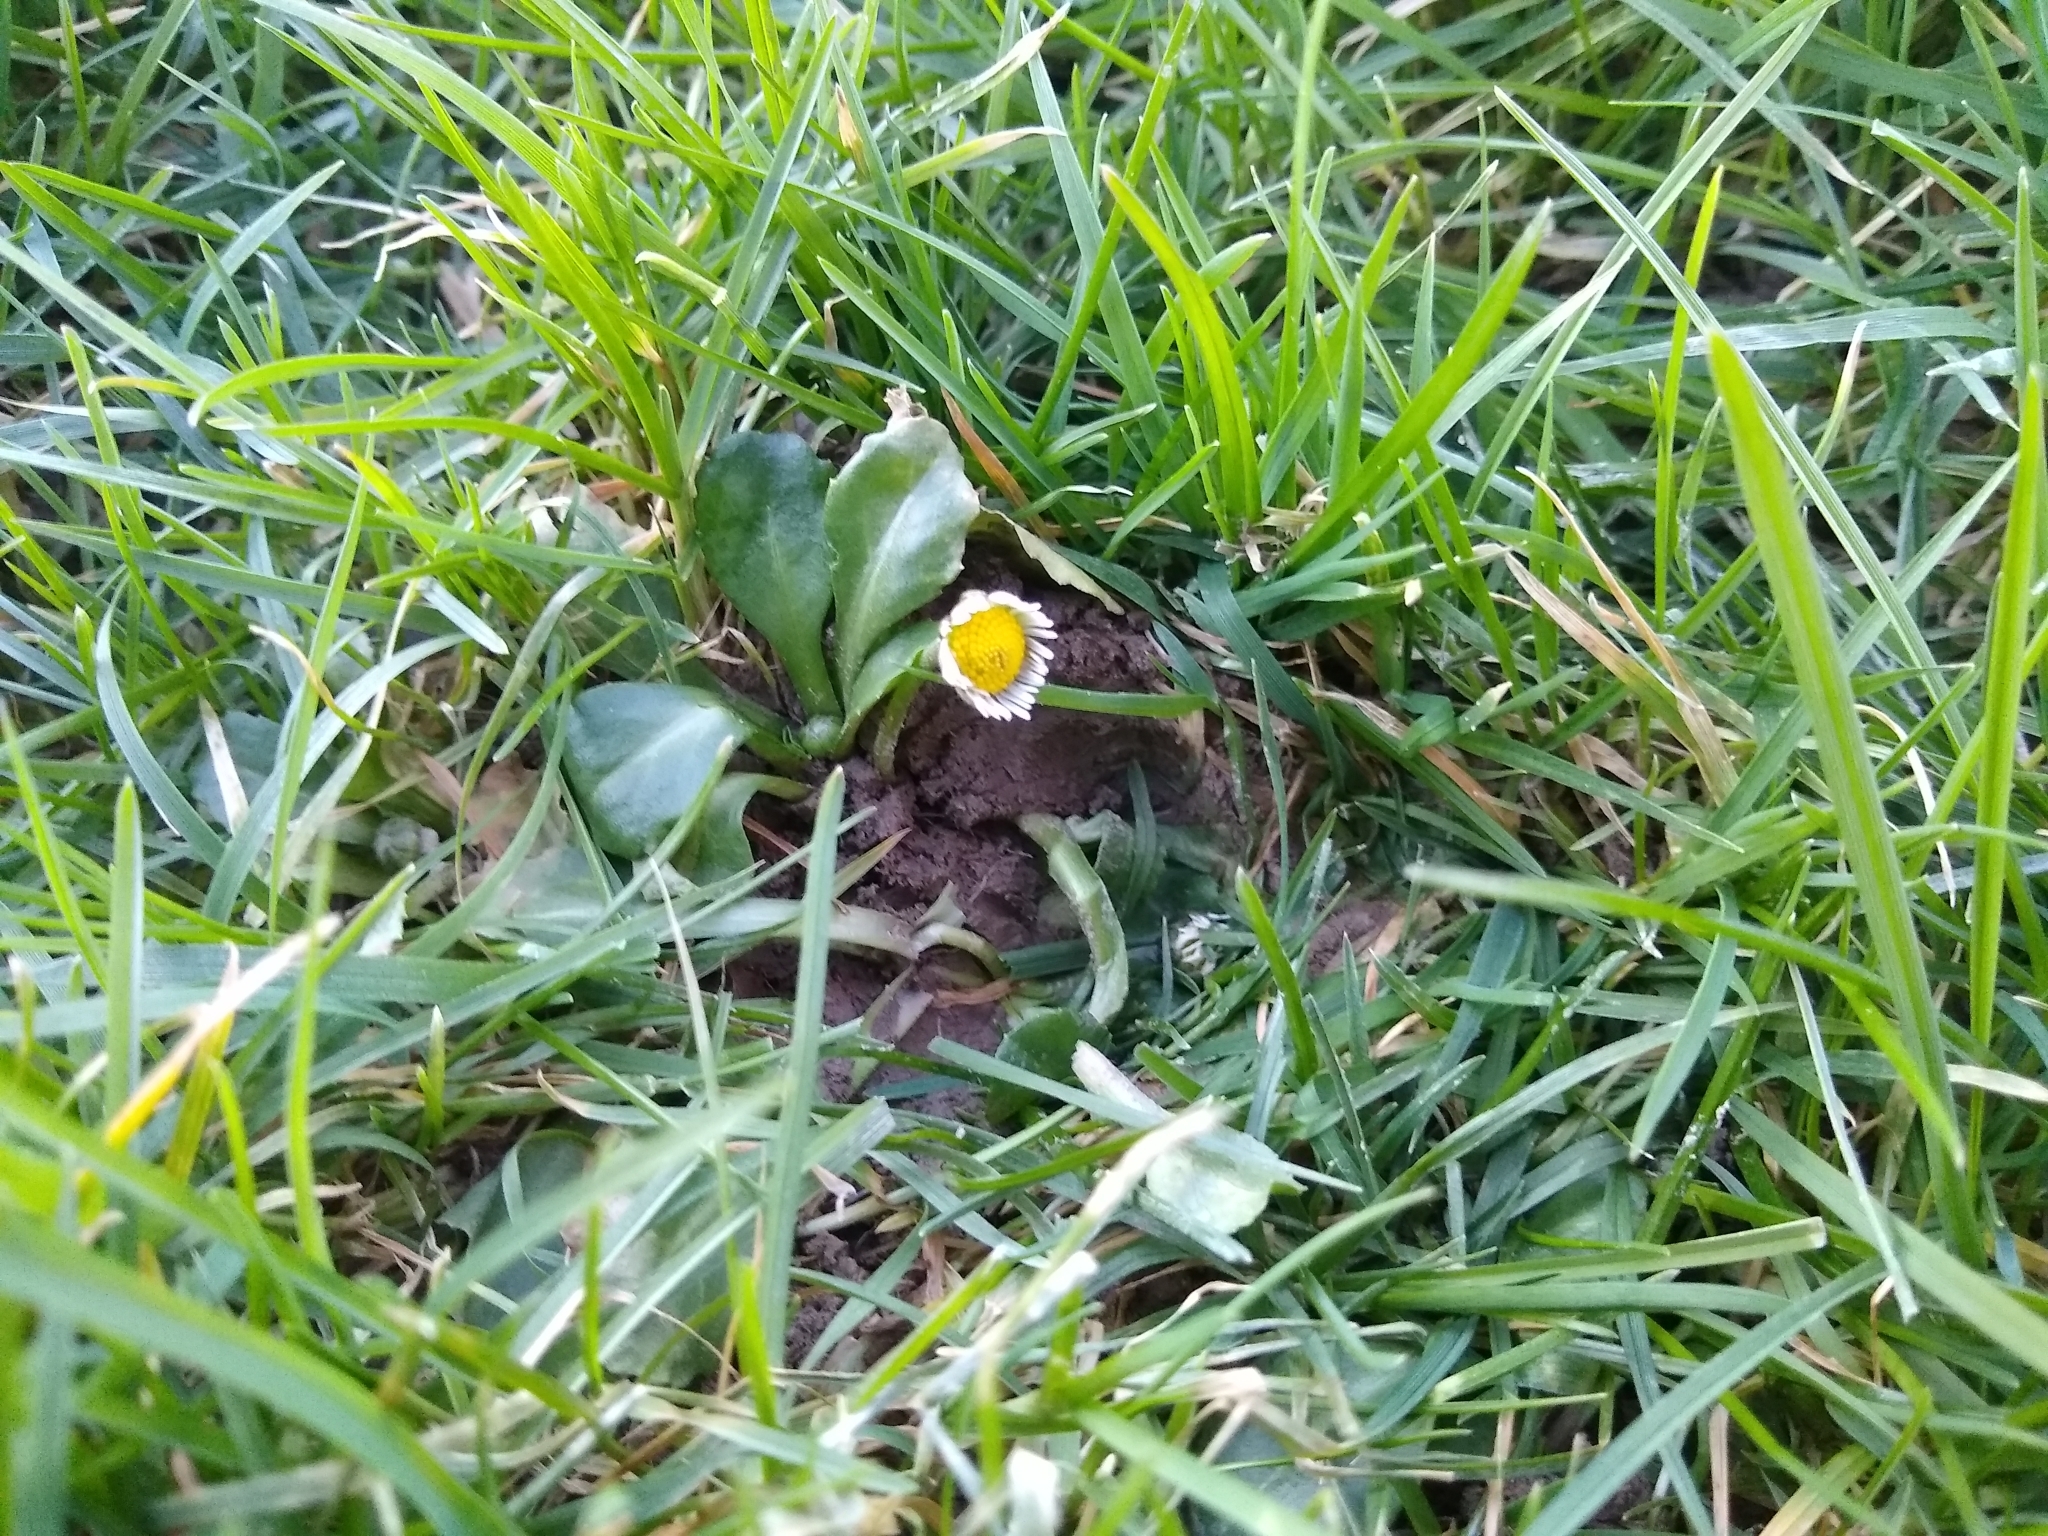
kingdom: Plantae
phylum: Tracheophyta
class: Magnoliopsida
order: Asterales
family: Asteraceae
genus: Bellis
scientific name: Bellis perennis
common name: Lawndaisy
